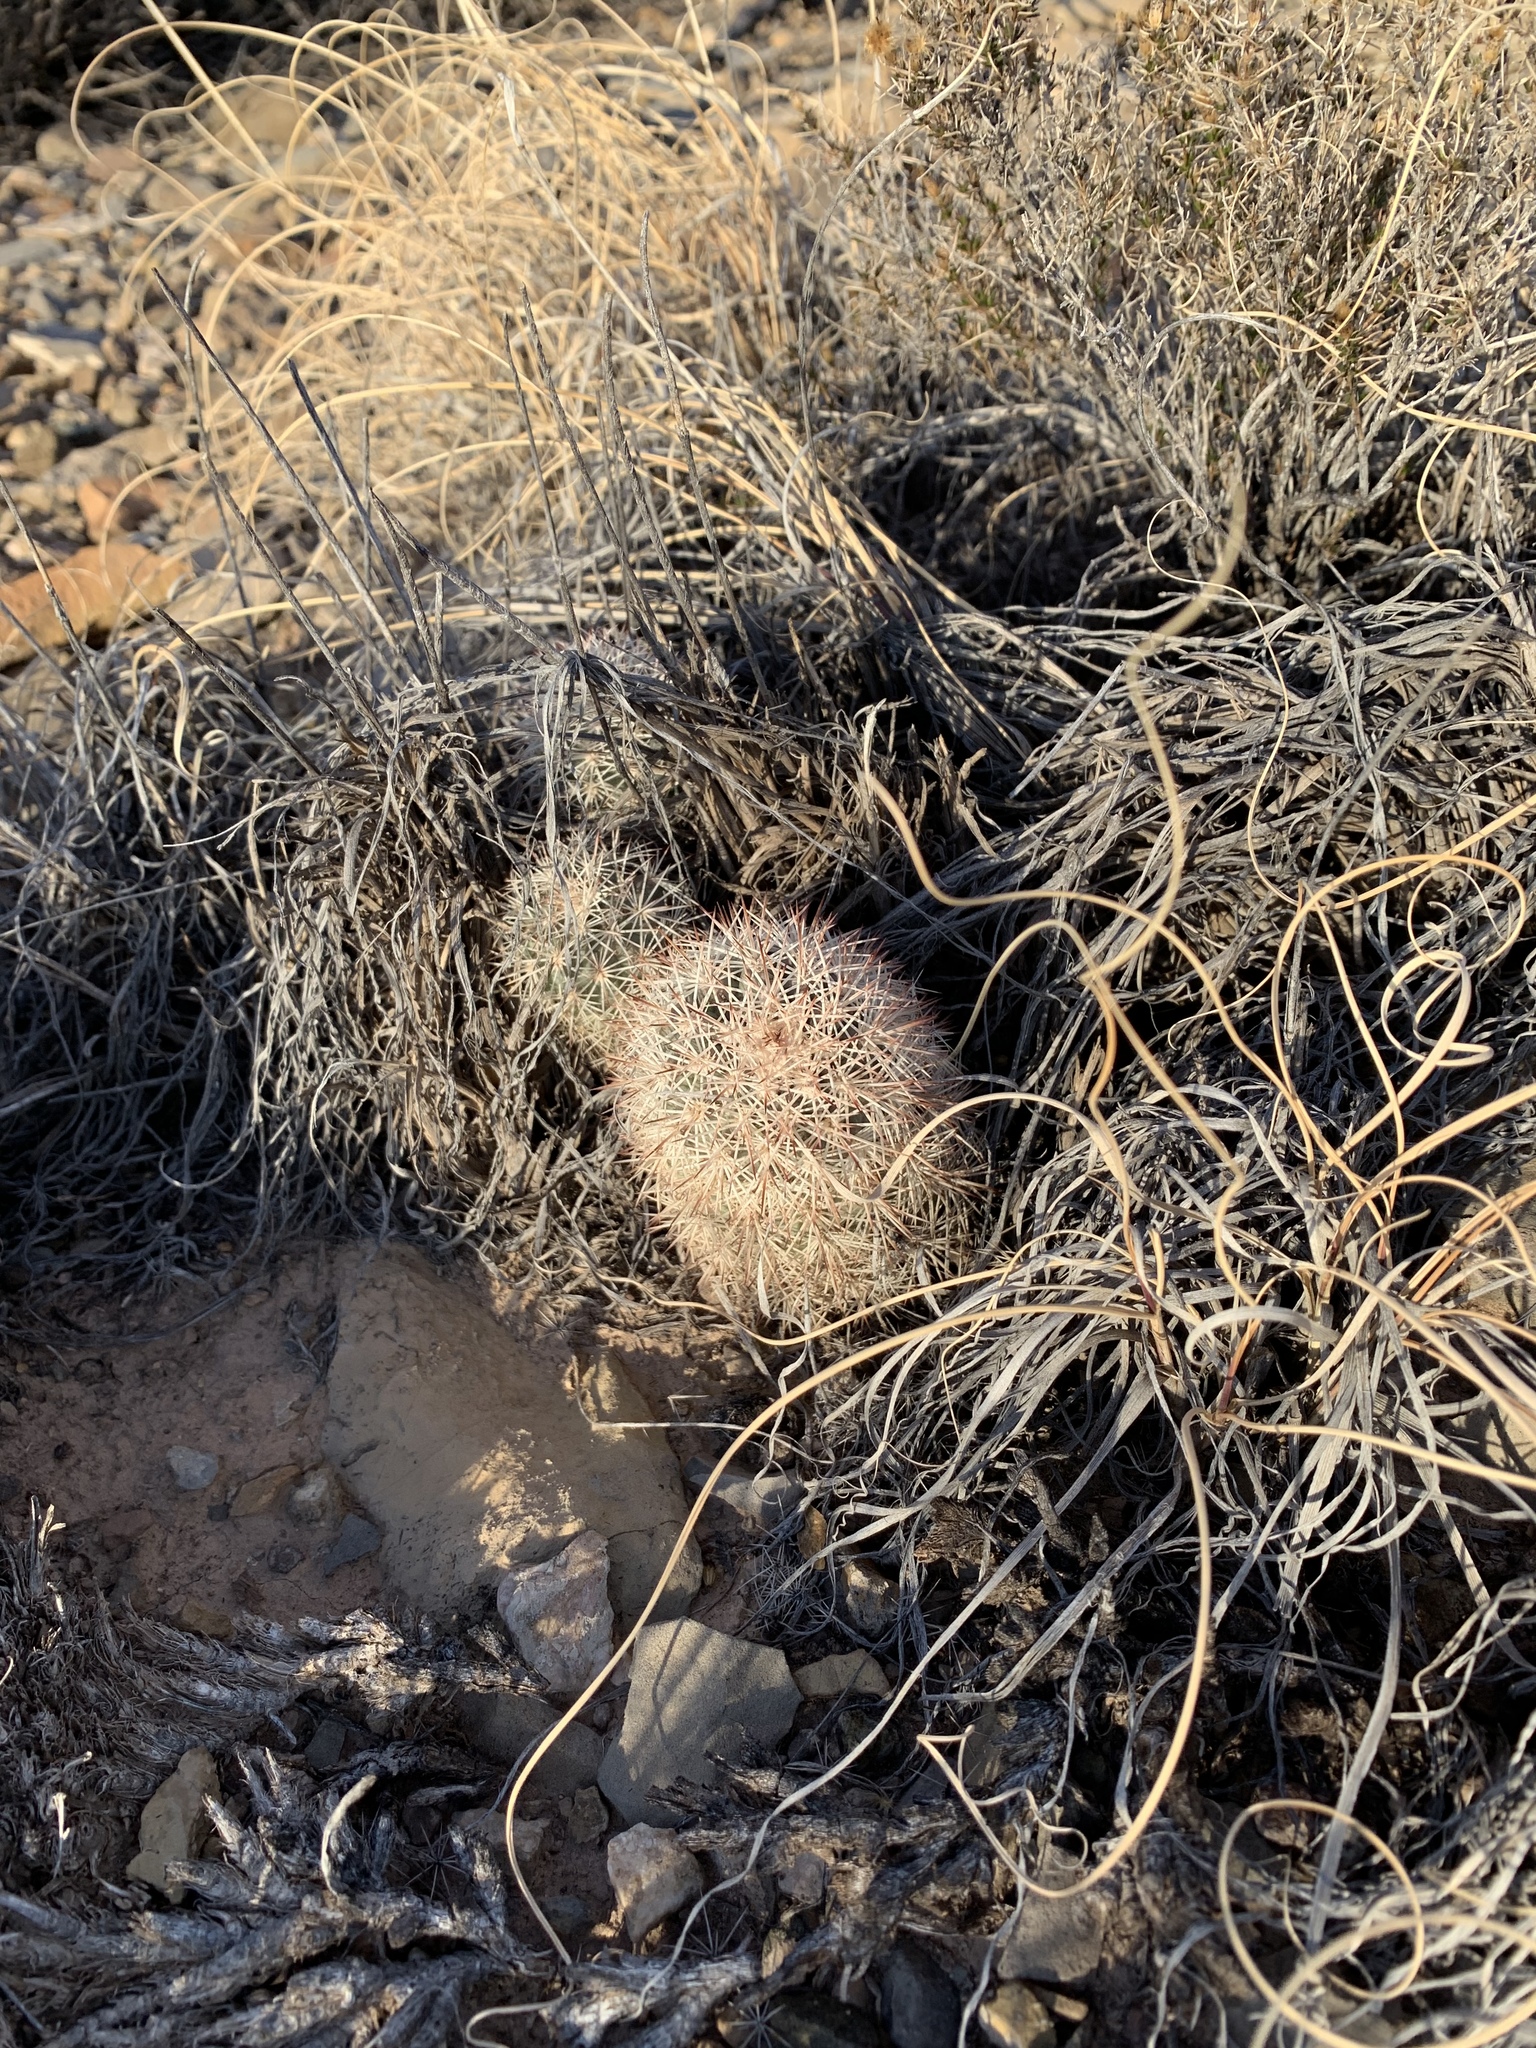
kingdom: Plantae
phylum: Tracheophyta
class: Magnoliopsida
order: Caryophyllales
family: Cactaceae
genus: Echinocereus
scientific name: Echinocereus dasyacanthus
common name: Spiny hedgehog cactus
